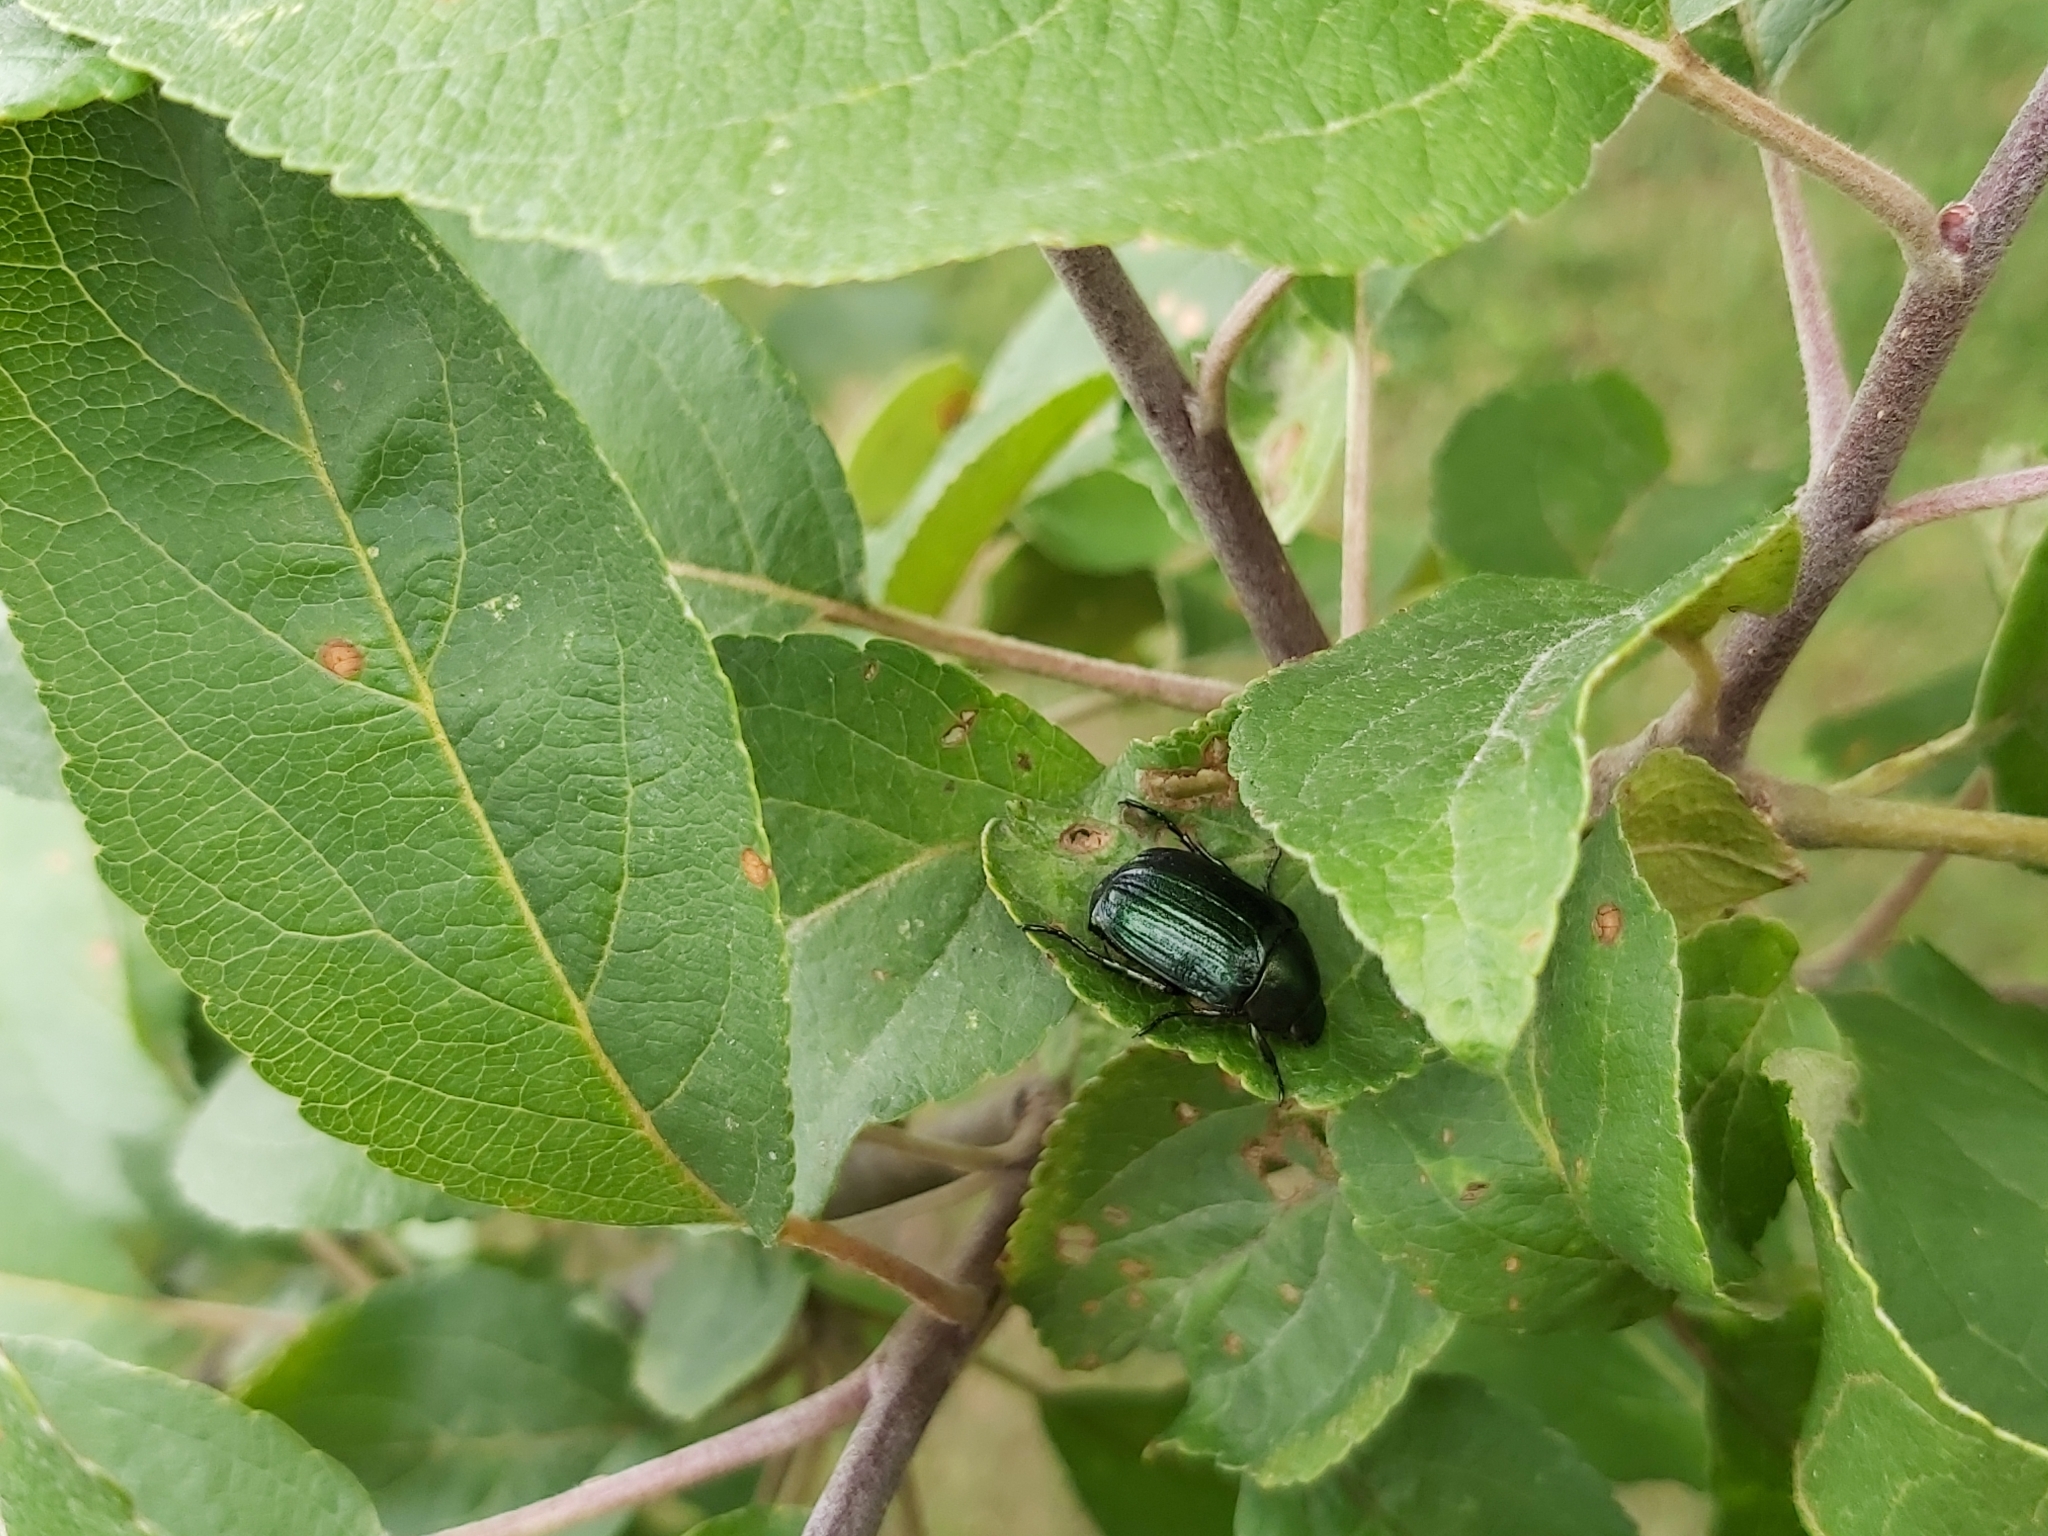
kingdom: Animalia
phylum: Arthropoda
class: Insecta
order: Coleoptera
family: Scarabaeidae
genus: Anomala
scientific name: Anomala dubia
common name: Dune chafer
